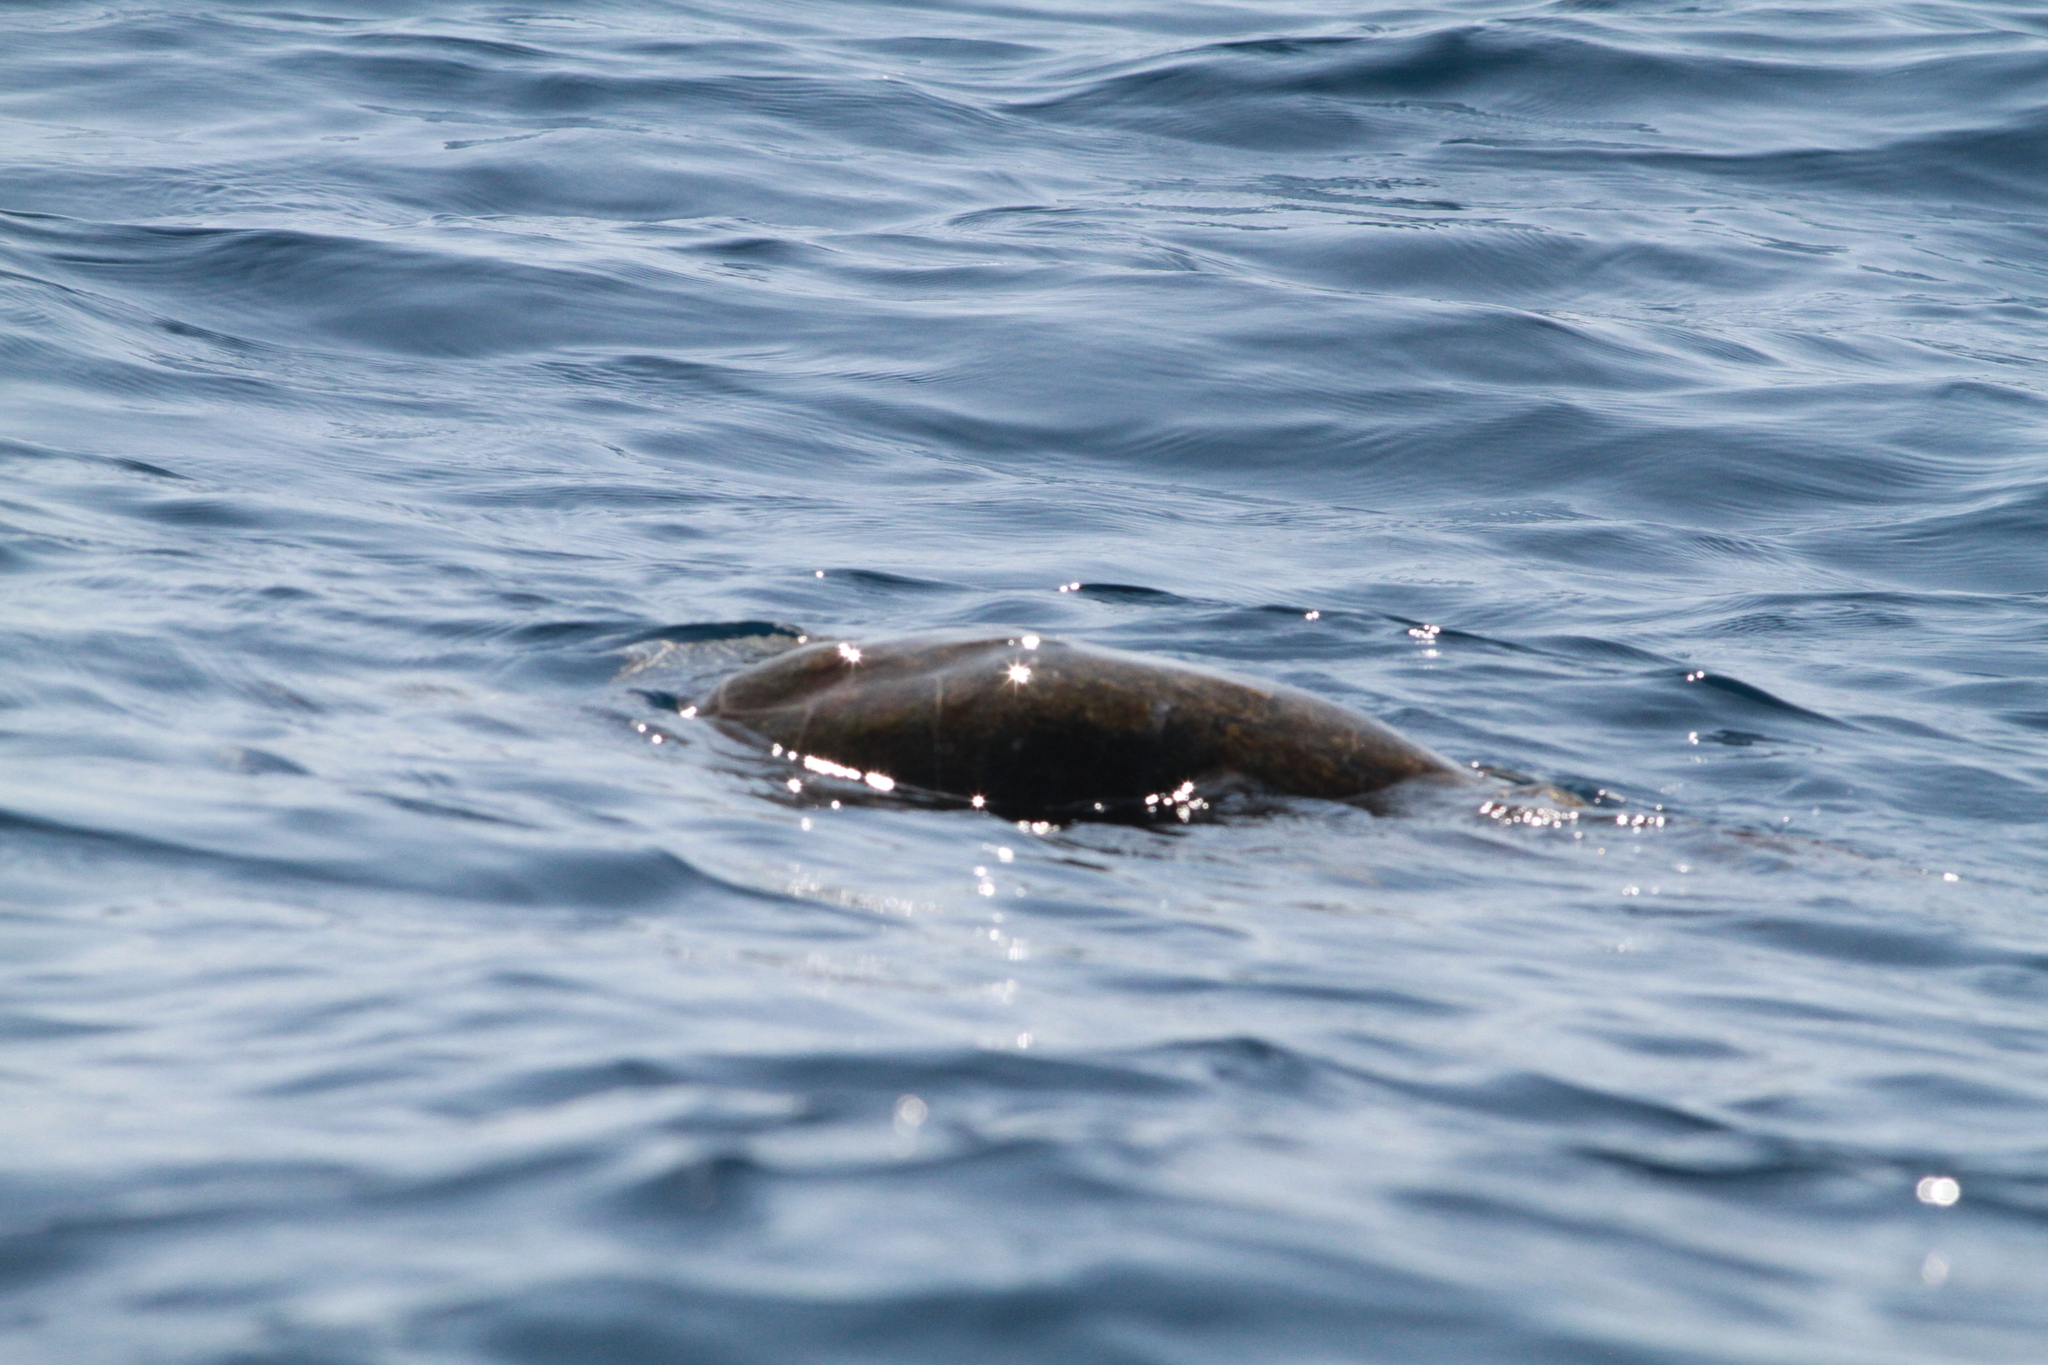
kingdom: Animalia
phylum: Chordata
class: Testudines
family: Cheloniidae
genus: Lepidochelys
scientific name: Lepidochelys olivacea
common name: Olive ridley
